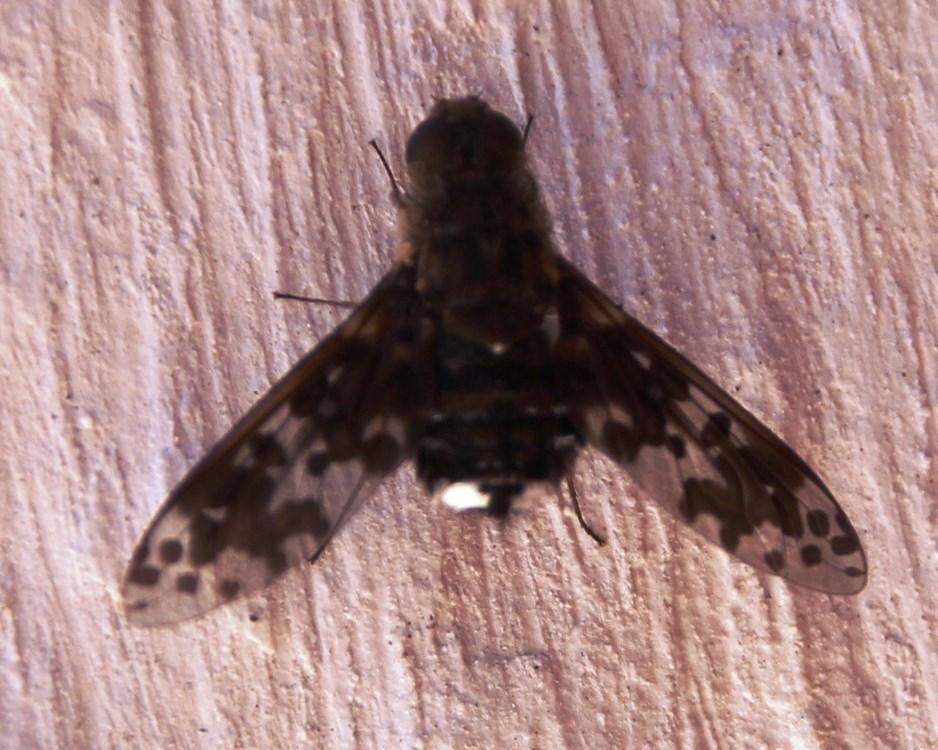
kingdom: Animalia
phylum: Arthropoda
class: Insecta
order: Diptera
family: Bombyliidae
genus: Anthrax
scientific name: Anthrax pithecius
